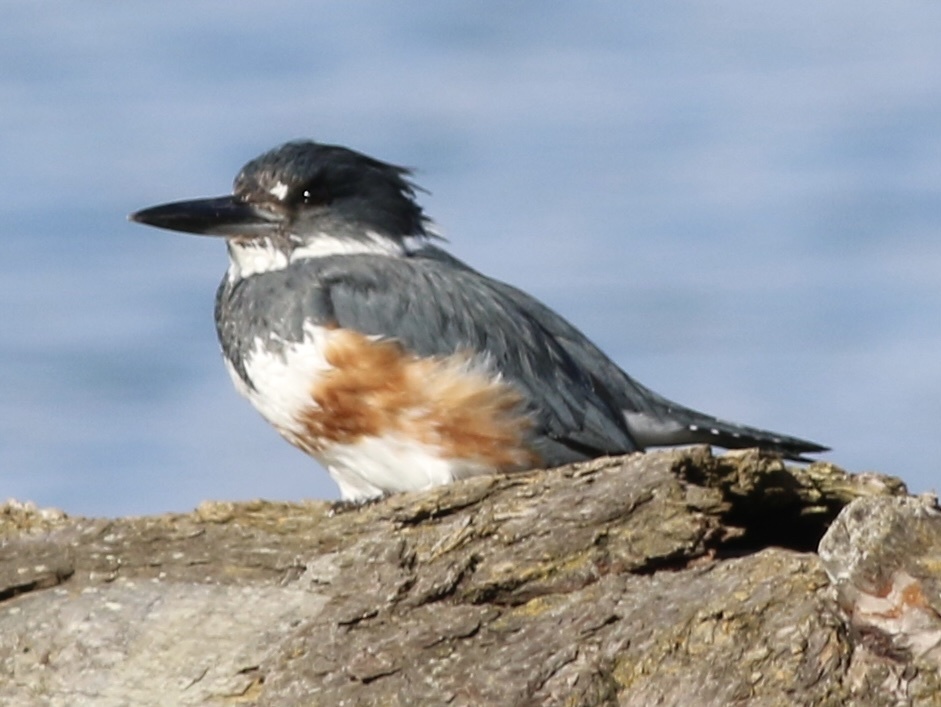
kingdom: Animalia
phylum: Chordata
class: Aves
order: Coraciiformes
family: Alcedinidae
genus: Megaceryle
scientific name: Megaceryle alcyon
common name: Belted kingfisher
